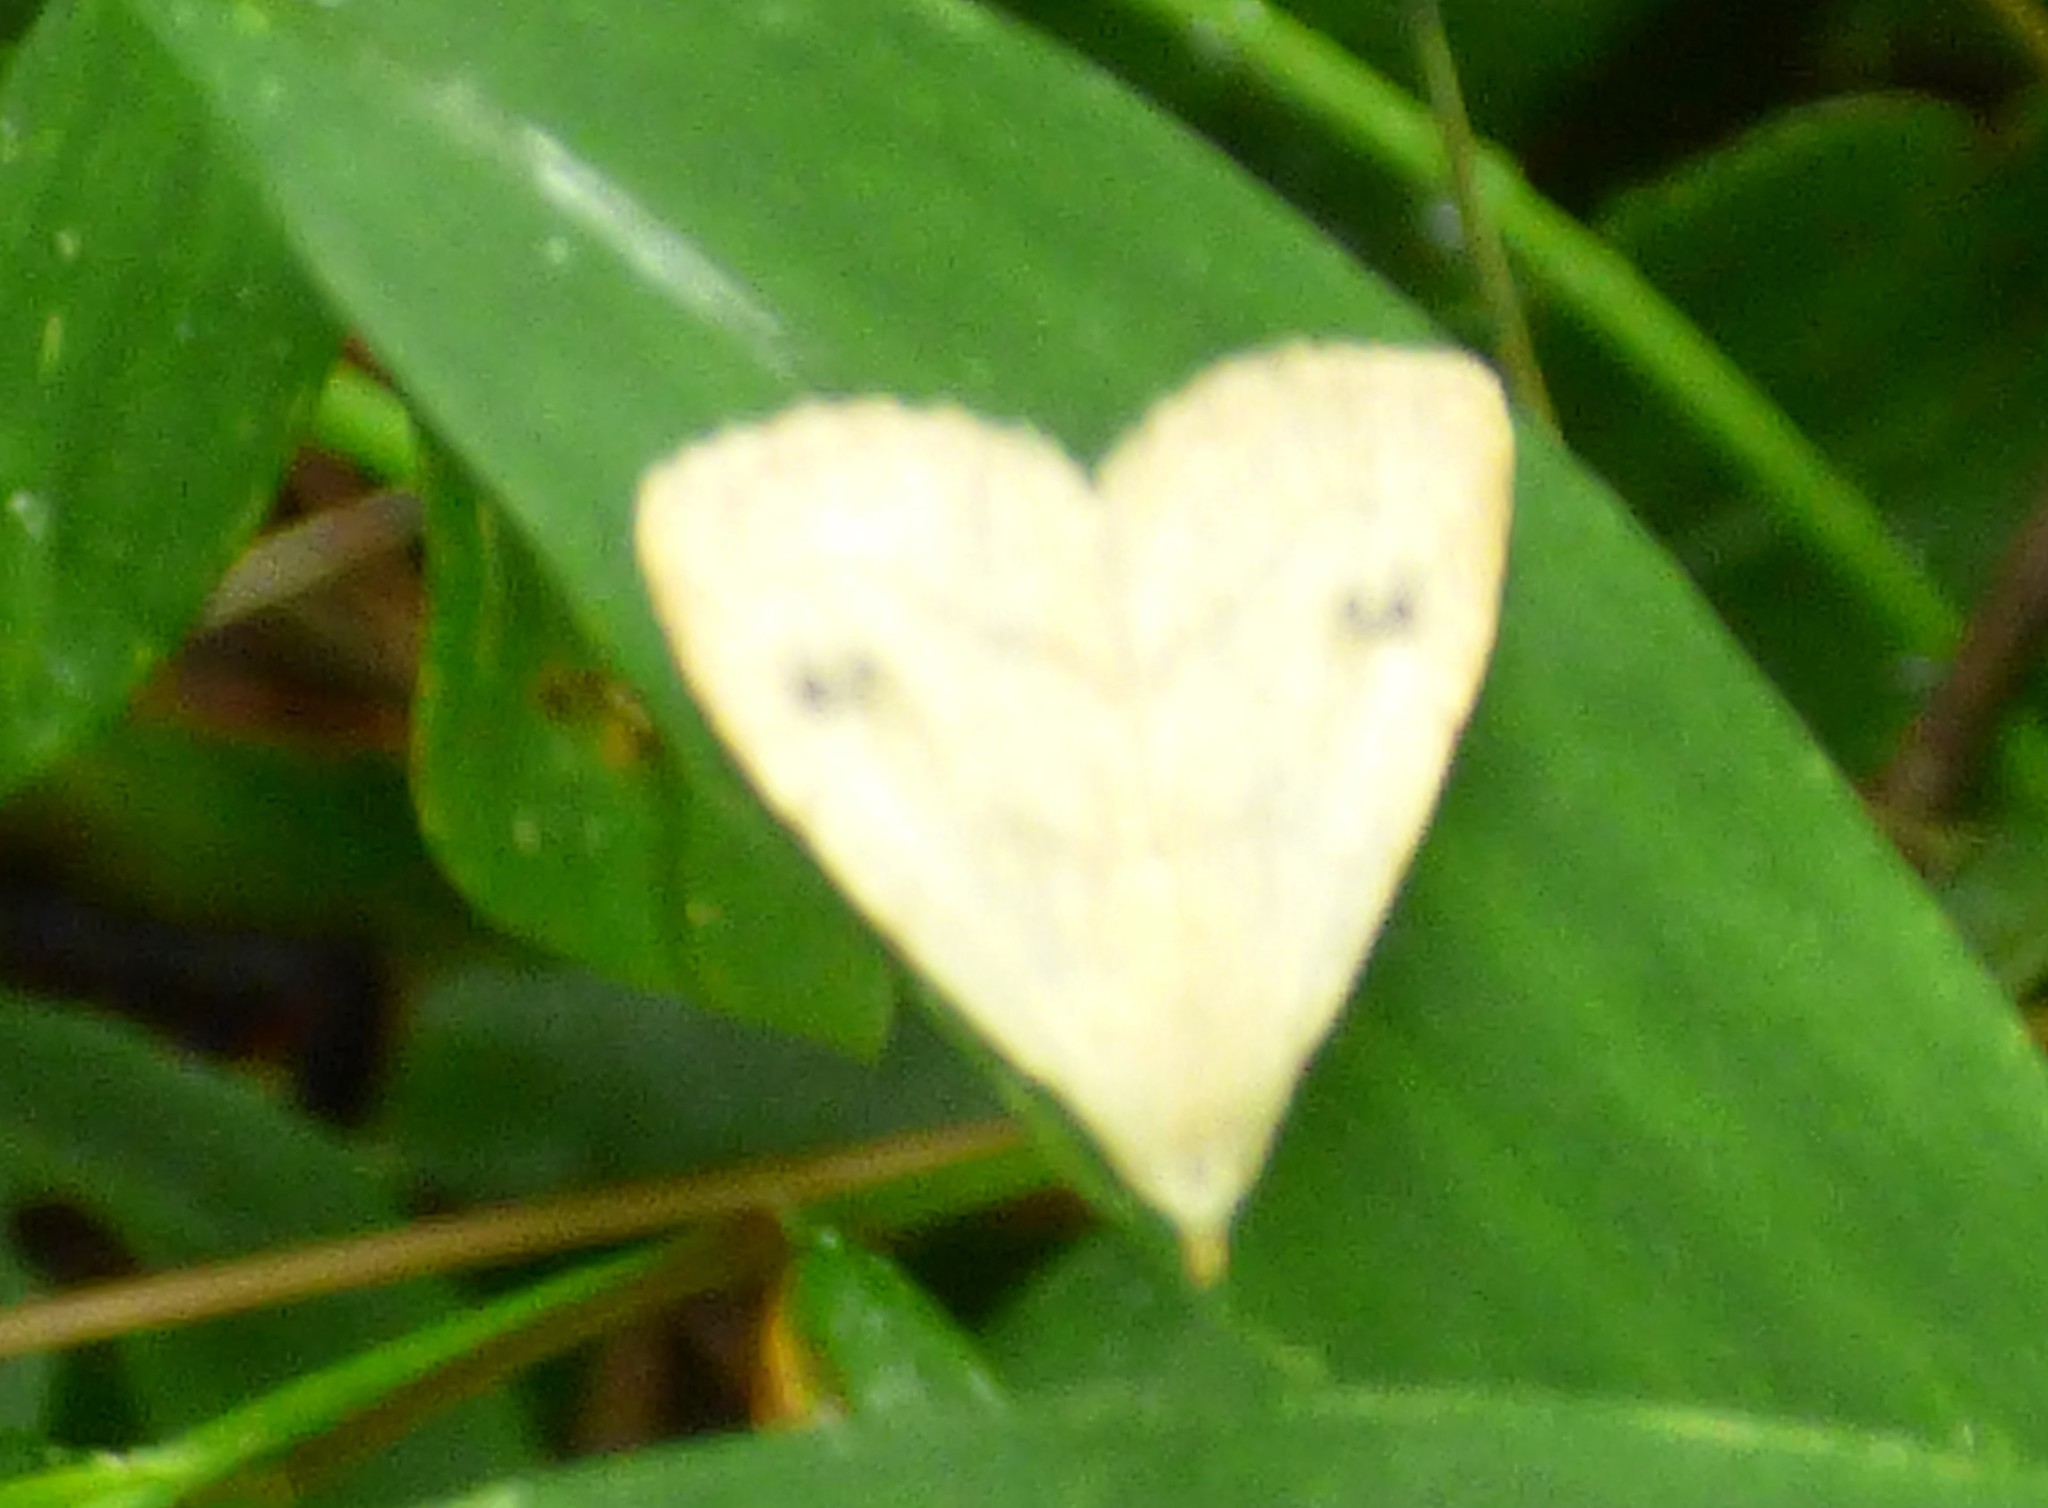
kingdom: Animalia
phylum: Arthropoda
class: Insecta
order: Lepidoptera
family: Erebidae
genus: Rivula
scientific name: Rivula propinqualis
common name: Spotted grass moth
